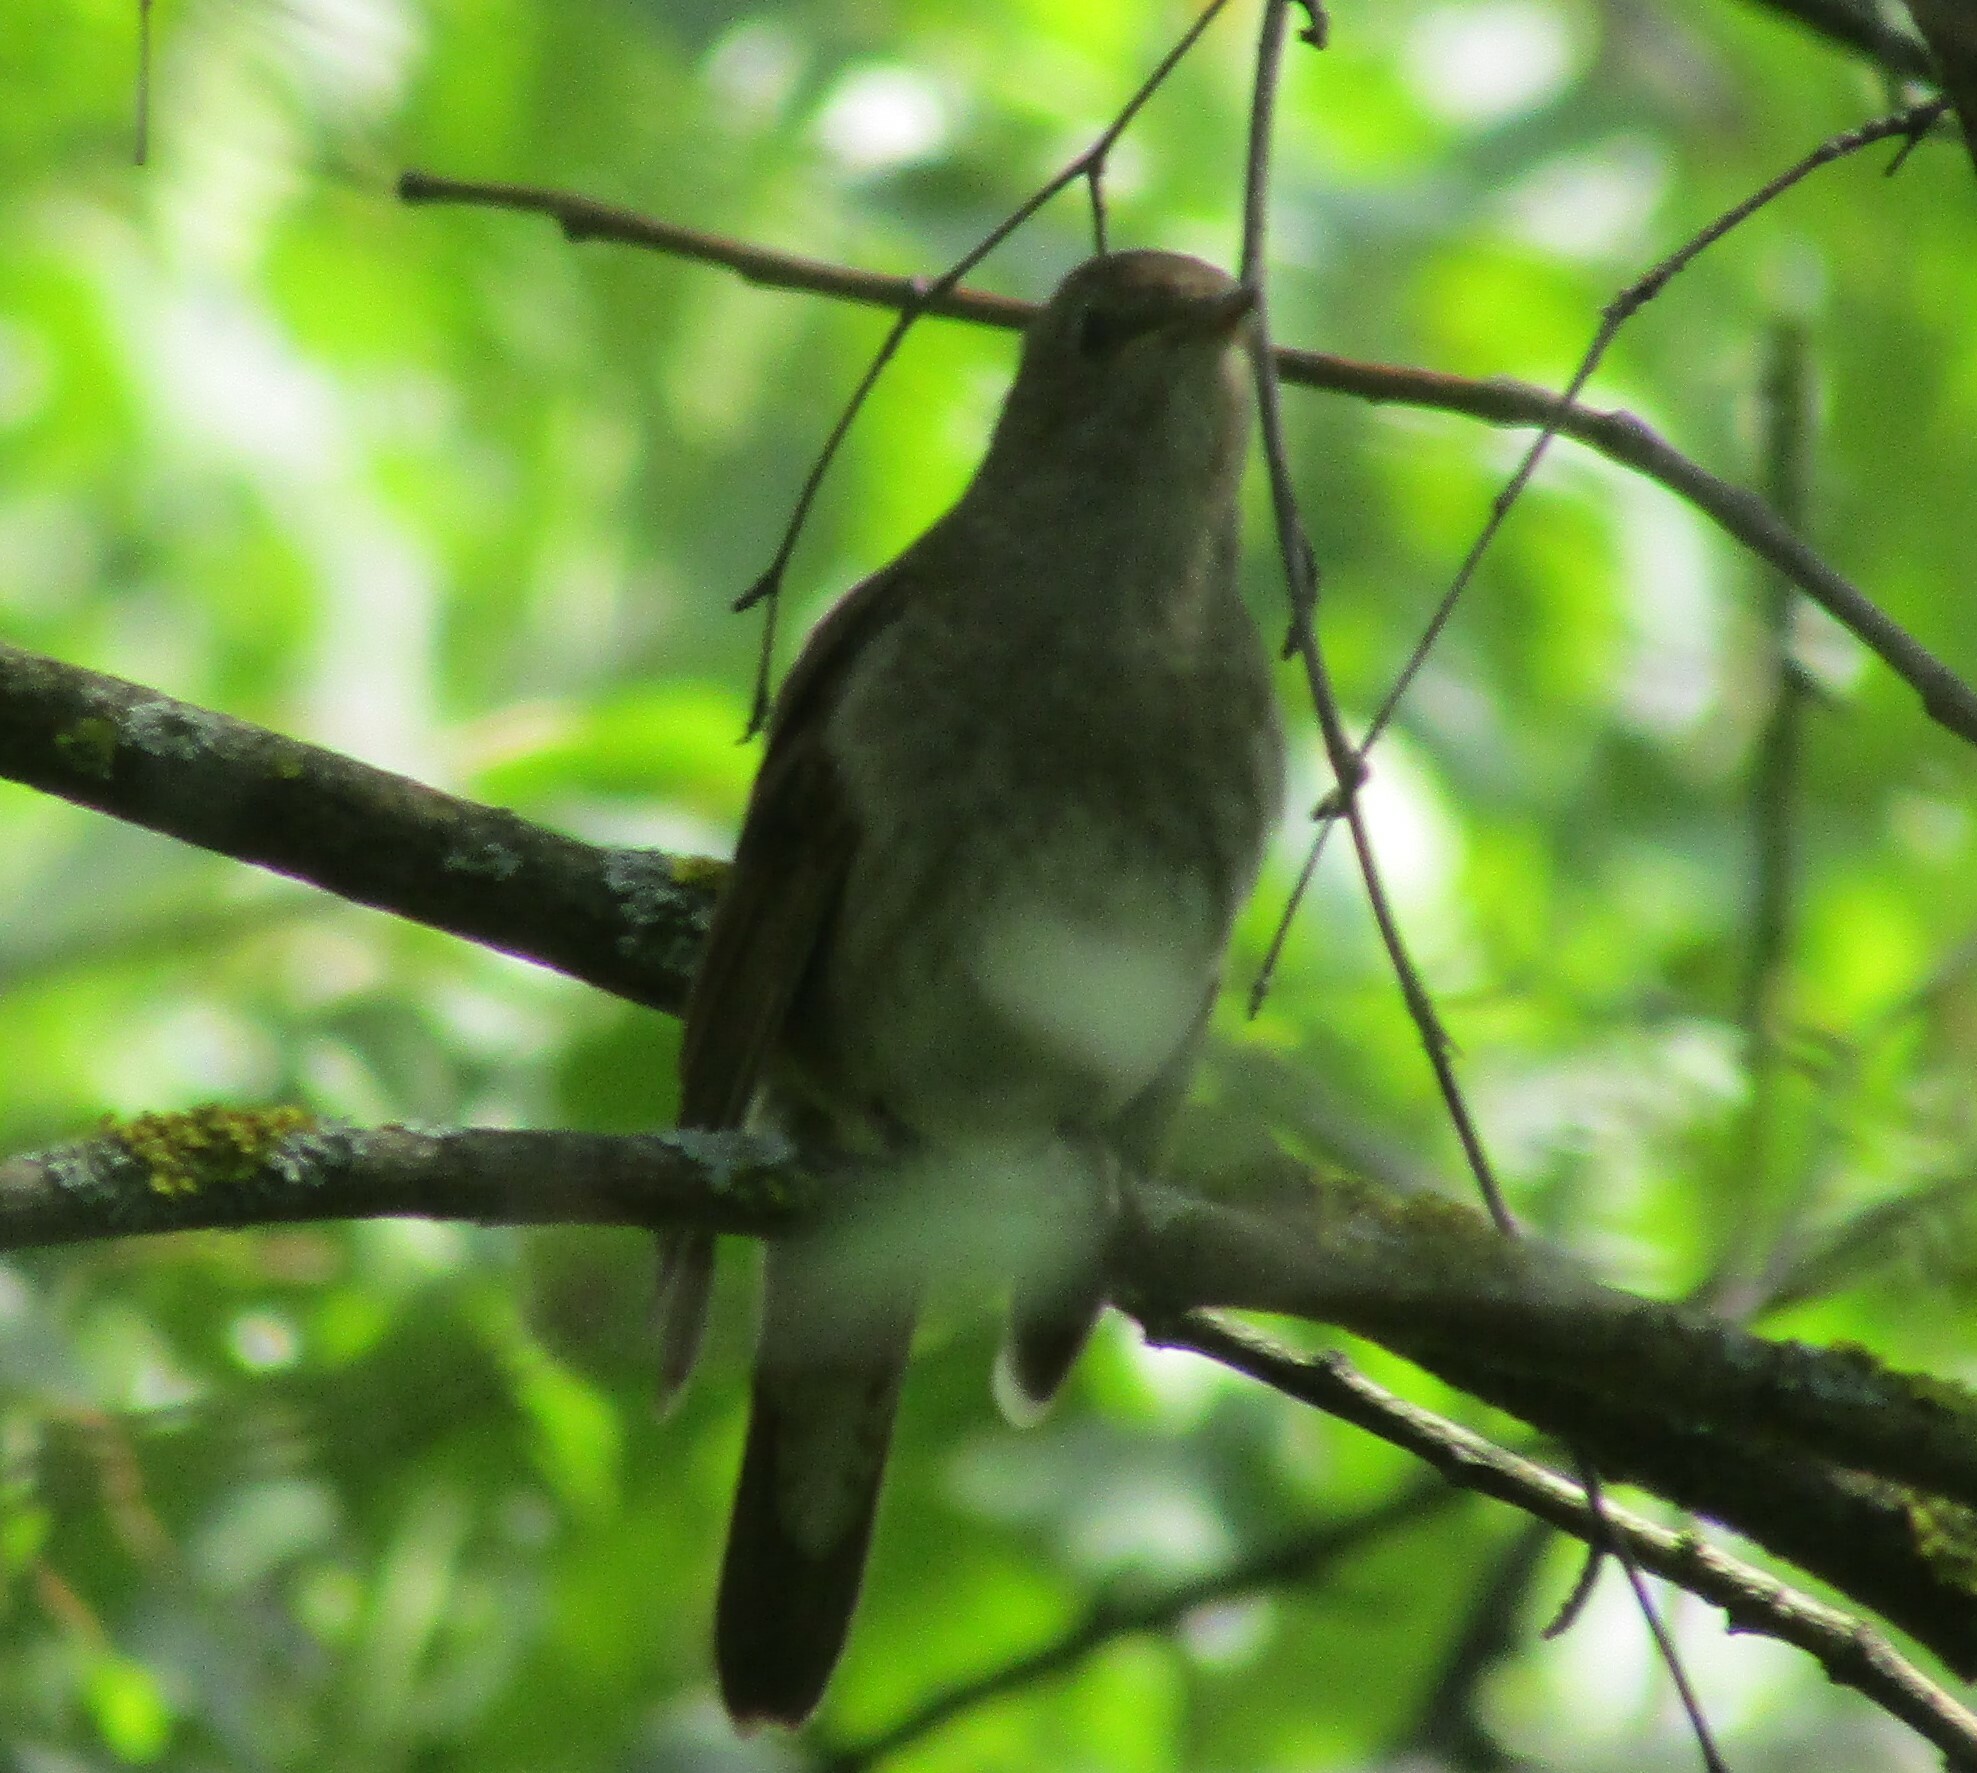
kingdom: Animalia
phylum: Chordata
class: Aves
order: Passeriformes
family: Muscicapidae
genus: Luscinia
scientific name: Luscinia luscinia
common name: Thrush nightingale
